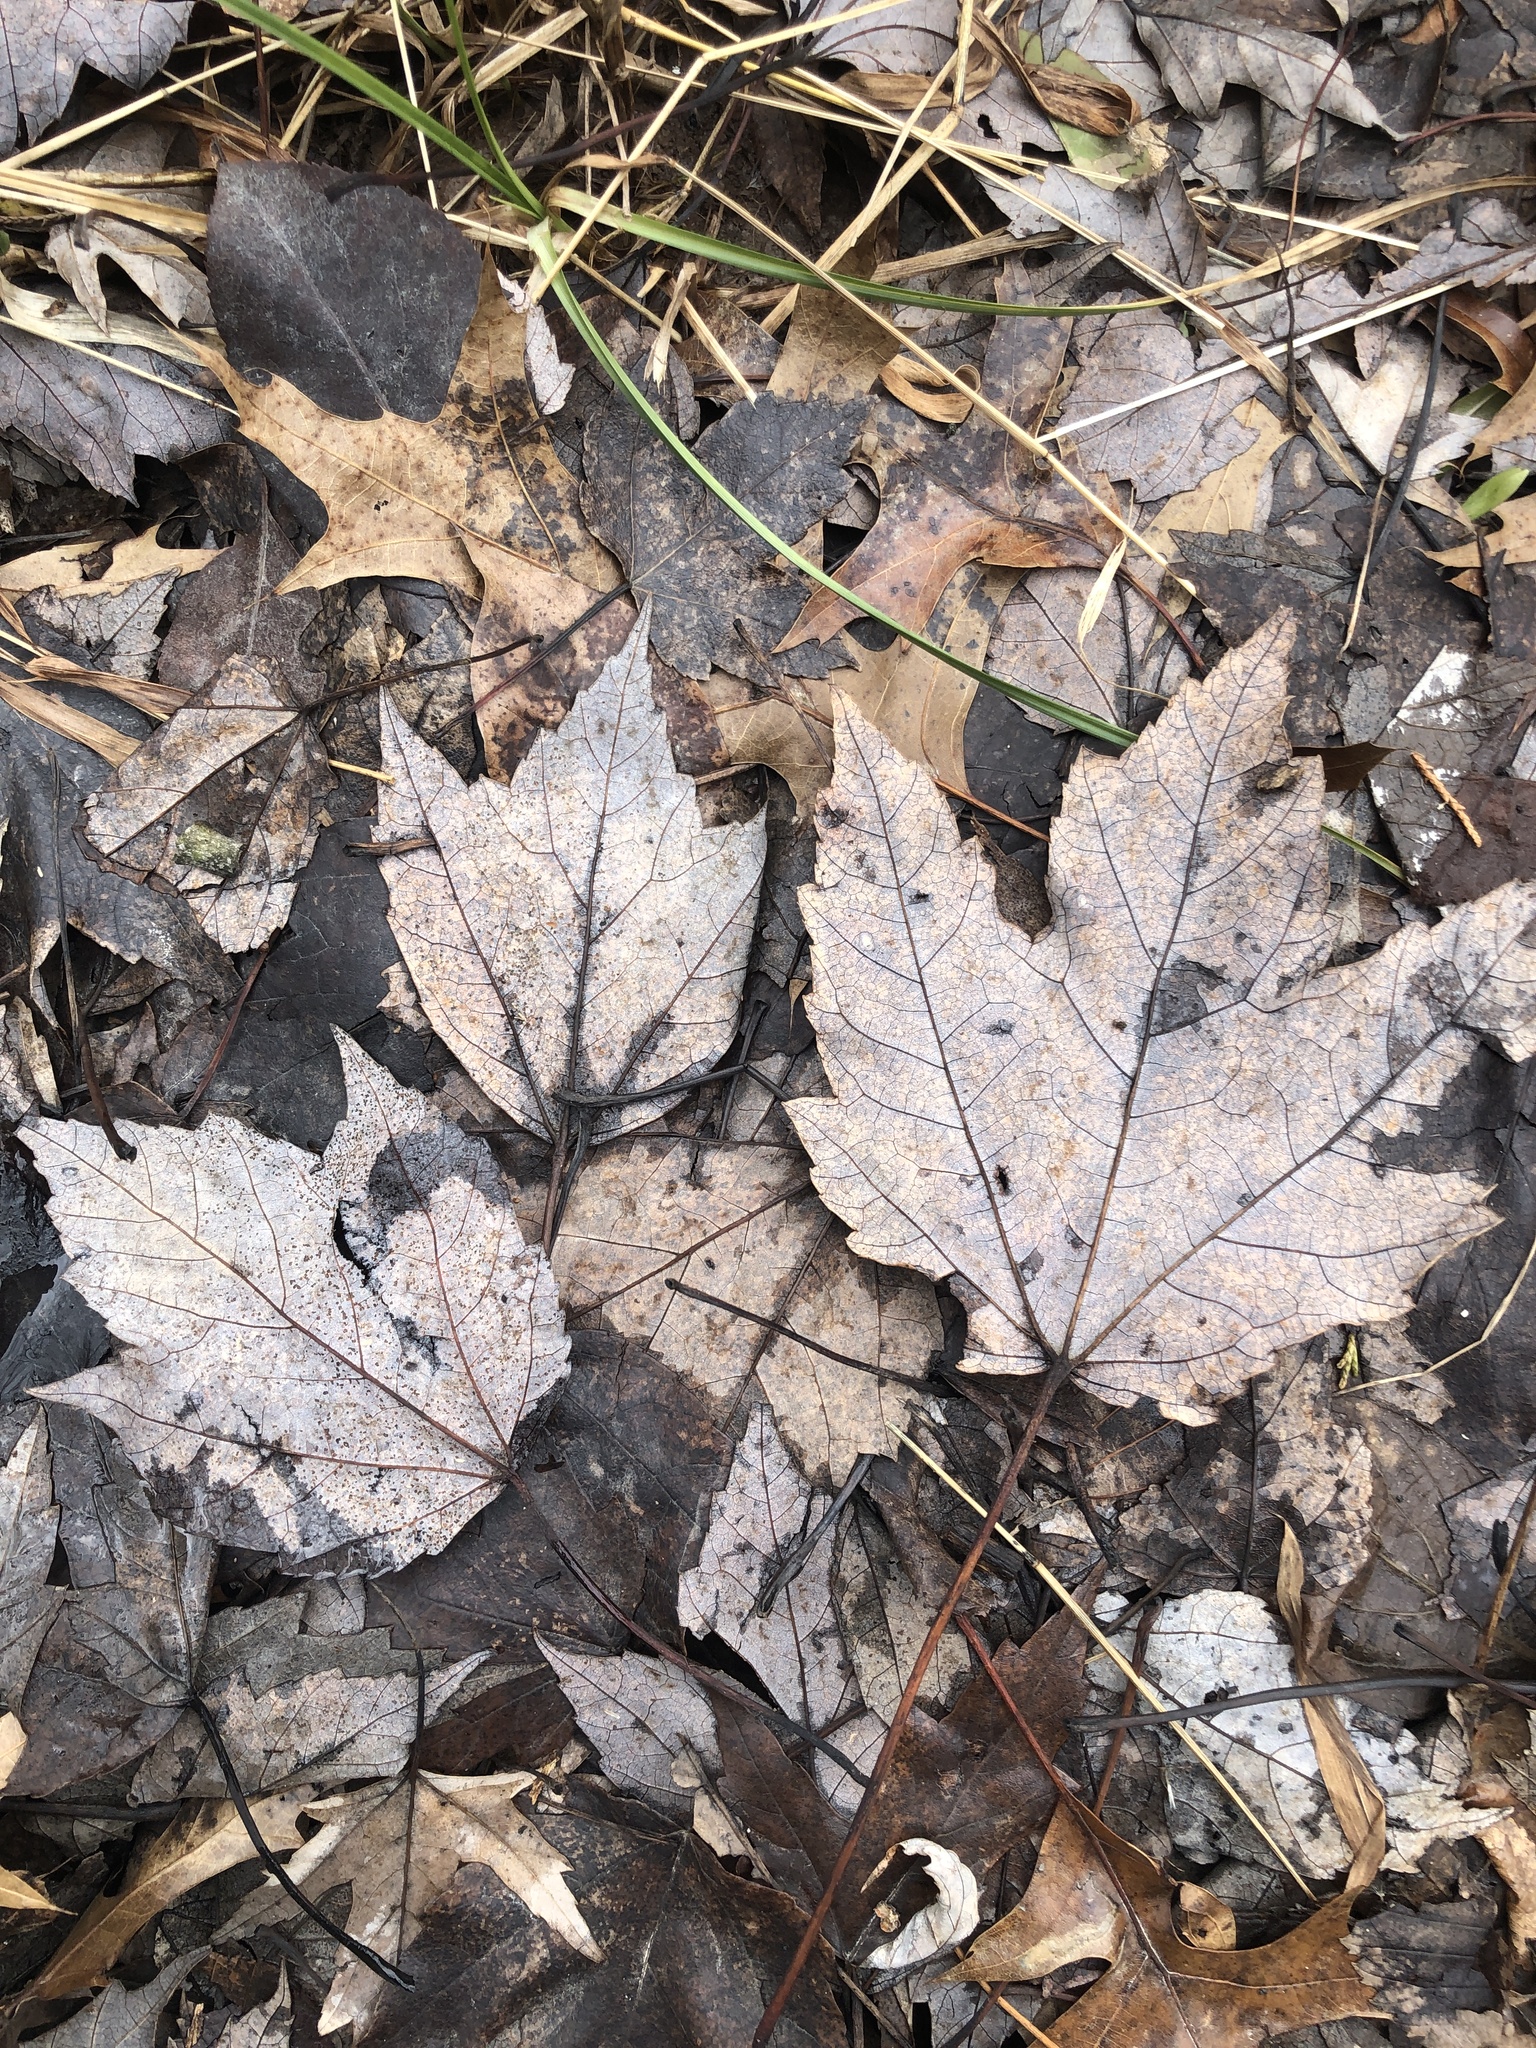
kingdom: Plantae
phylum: Tracheophyta
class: Magnoliopsida
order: Sapindales
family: Sapindaceae
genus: Acer
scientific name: Acer rubrum
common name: Red maple
